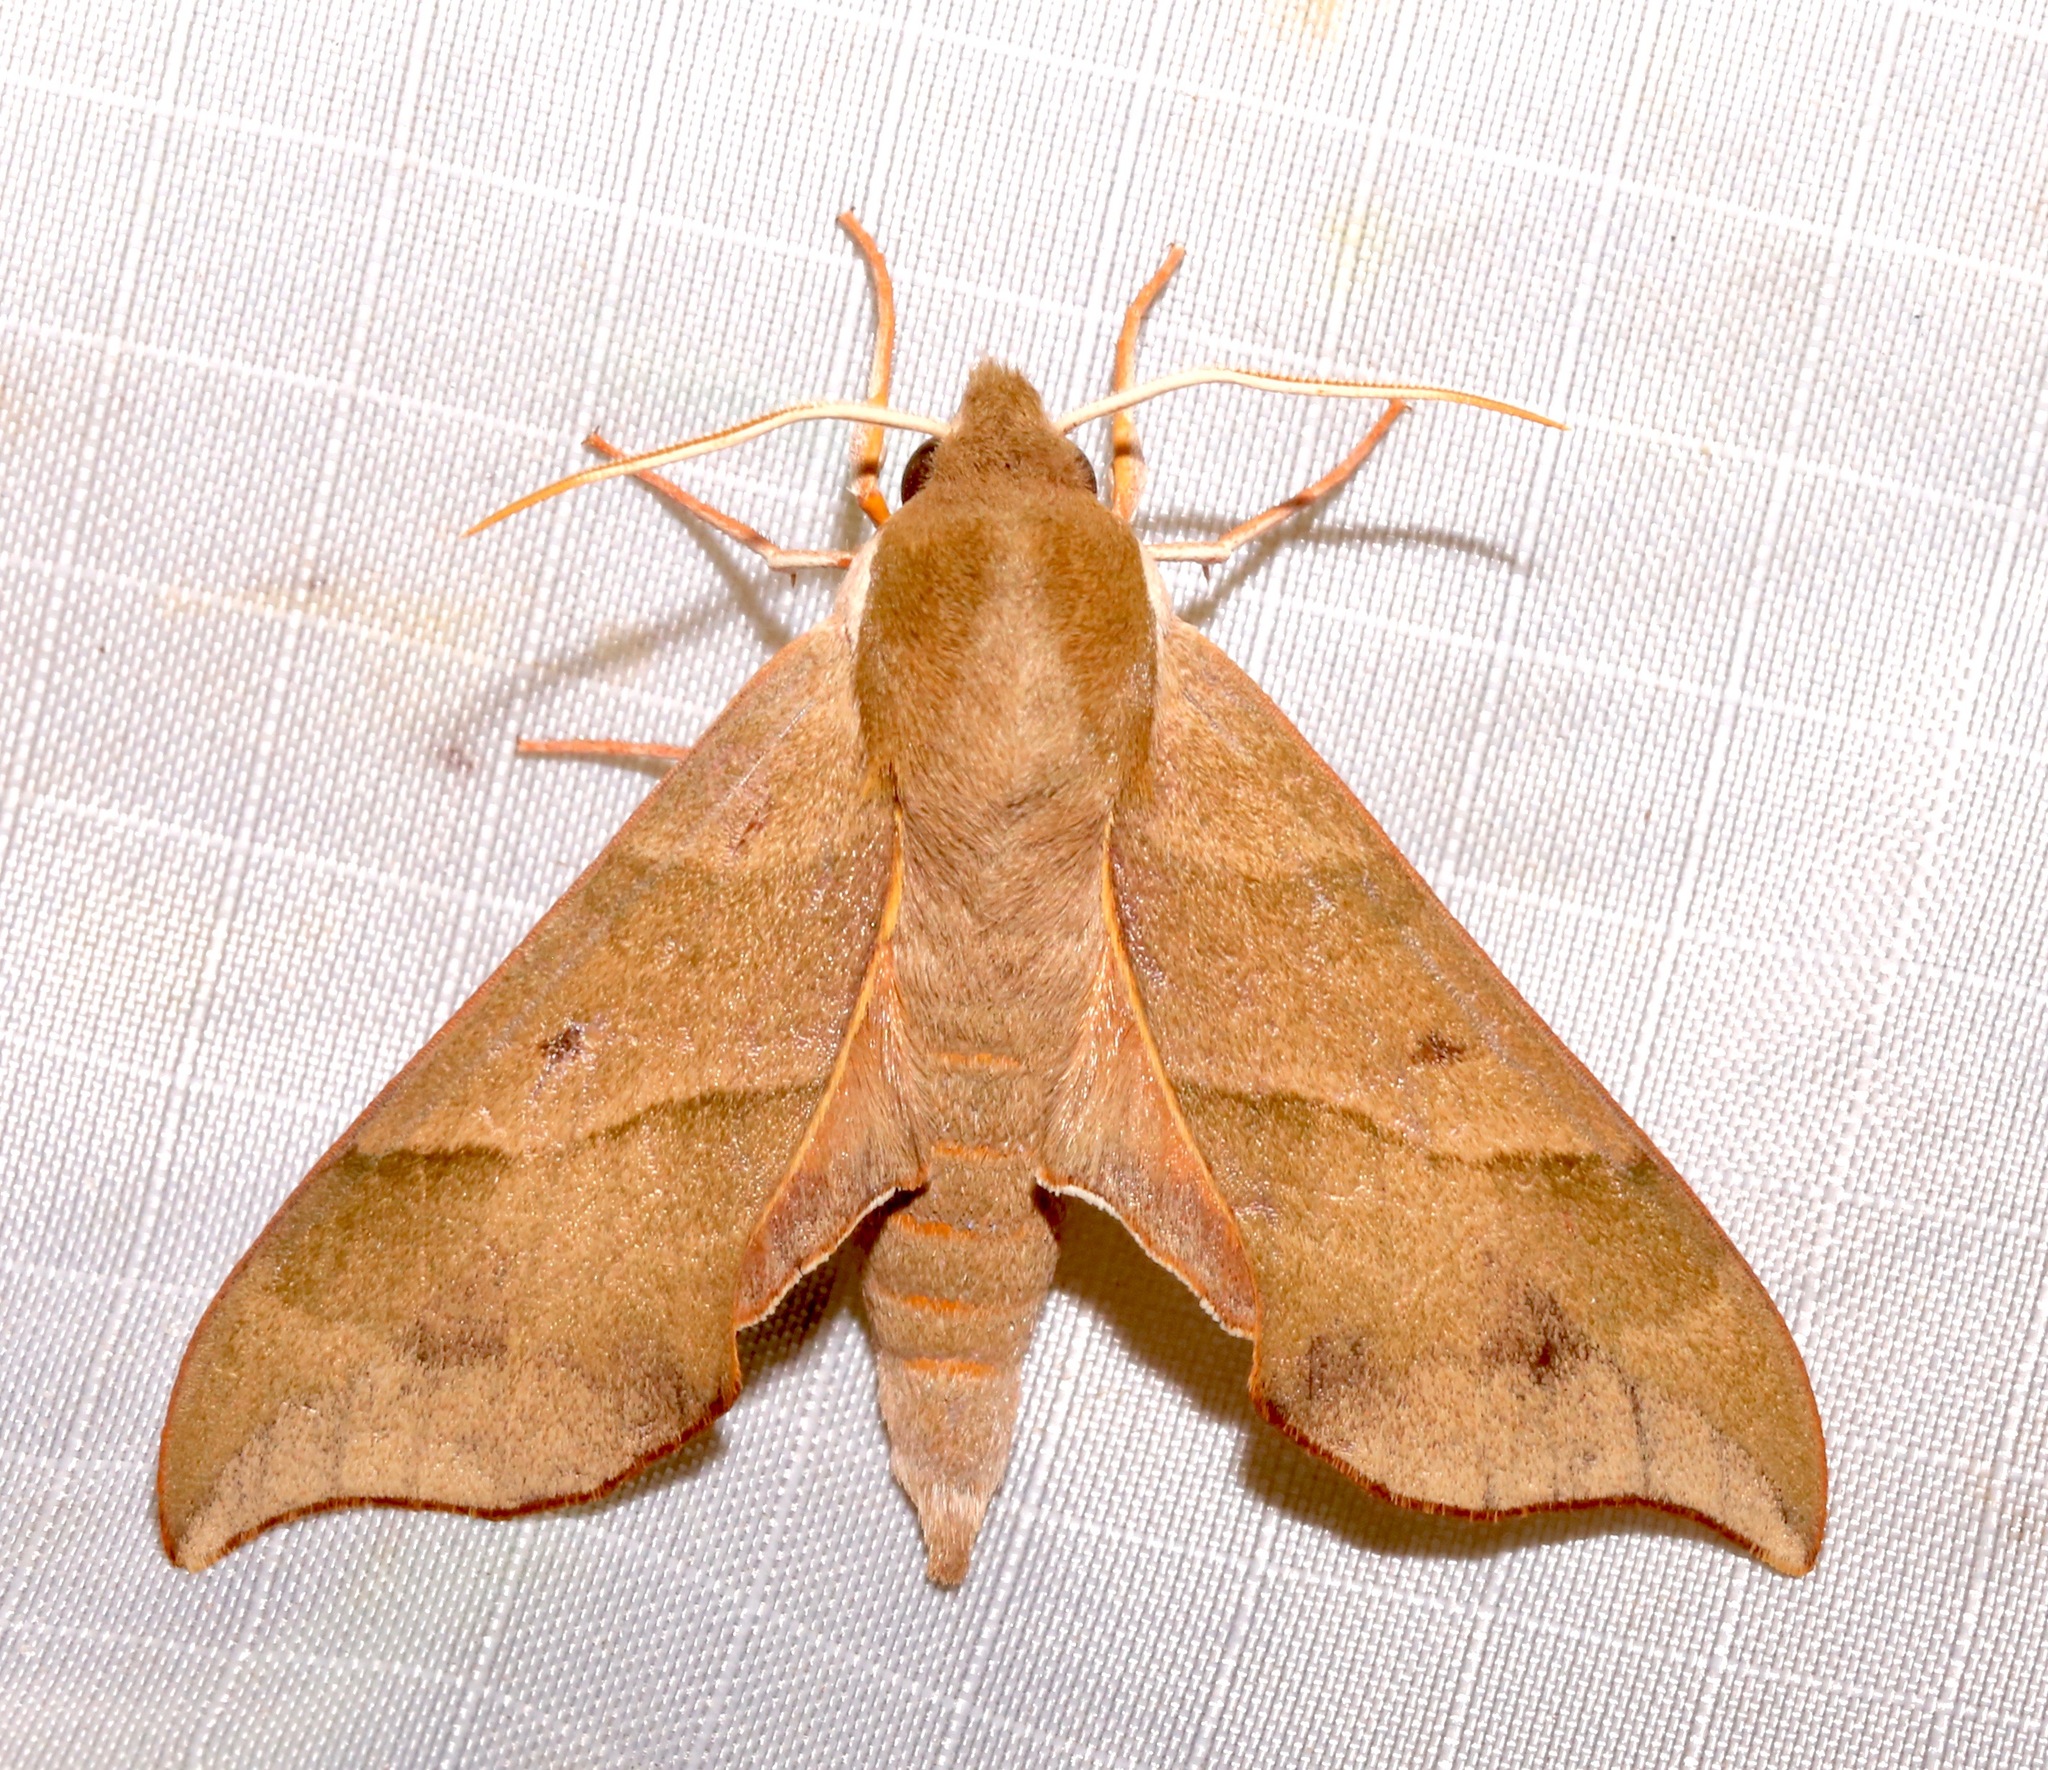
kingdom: Animalia
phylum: Arthropoda
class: Insecta
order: Lepidoptera
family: Sphingidae
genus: Darapsa
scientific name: Darapsa myron
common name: Hog sphinx
